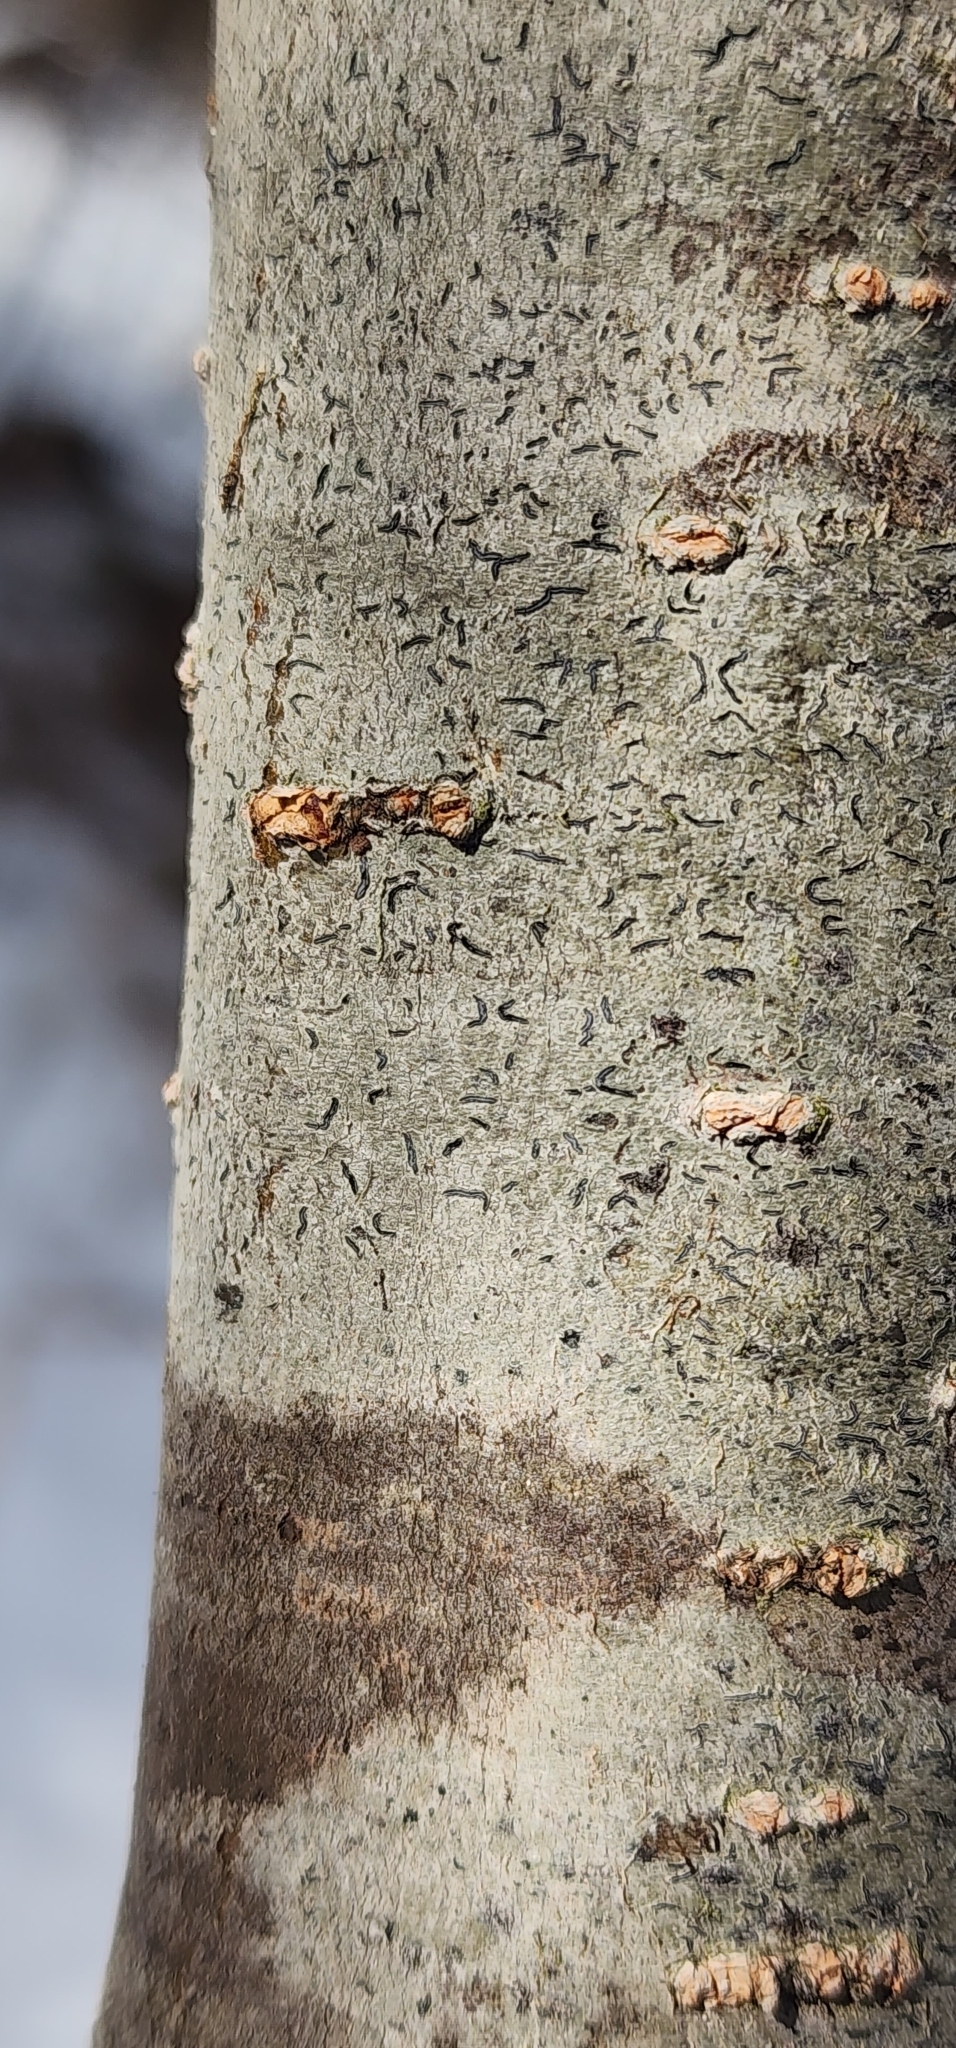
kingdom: Fungi
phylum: Ascomycota
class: Lecanoromycetes
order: Ostropales
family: Graphidaceae
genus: Graphis
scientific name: Graphis scripta
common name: Script lichen
